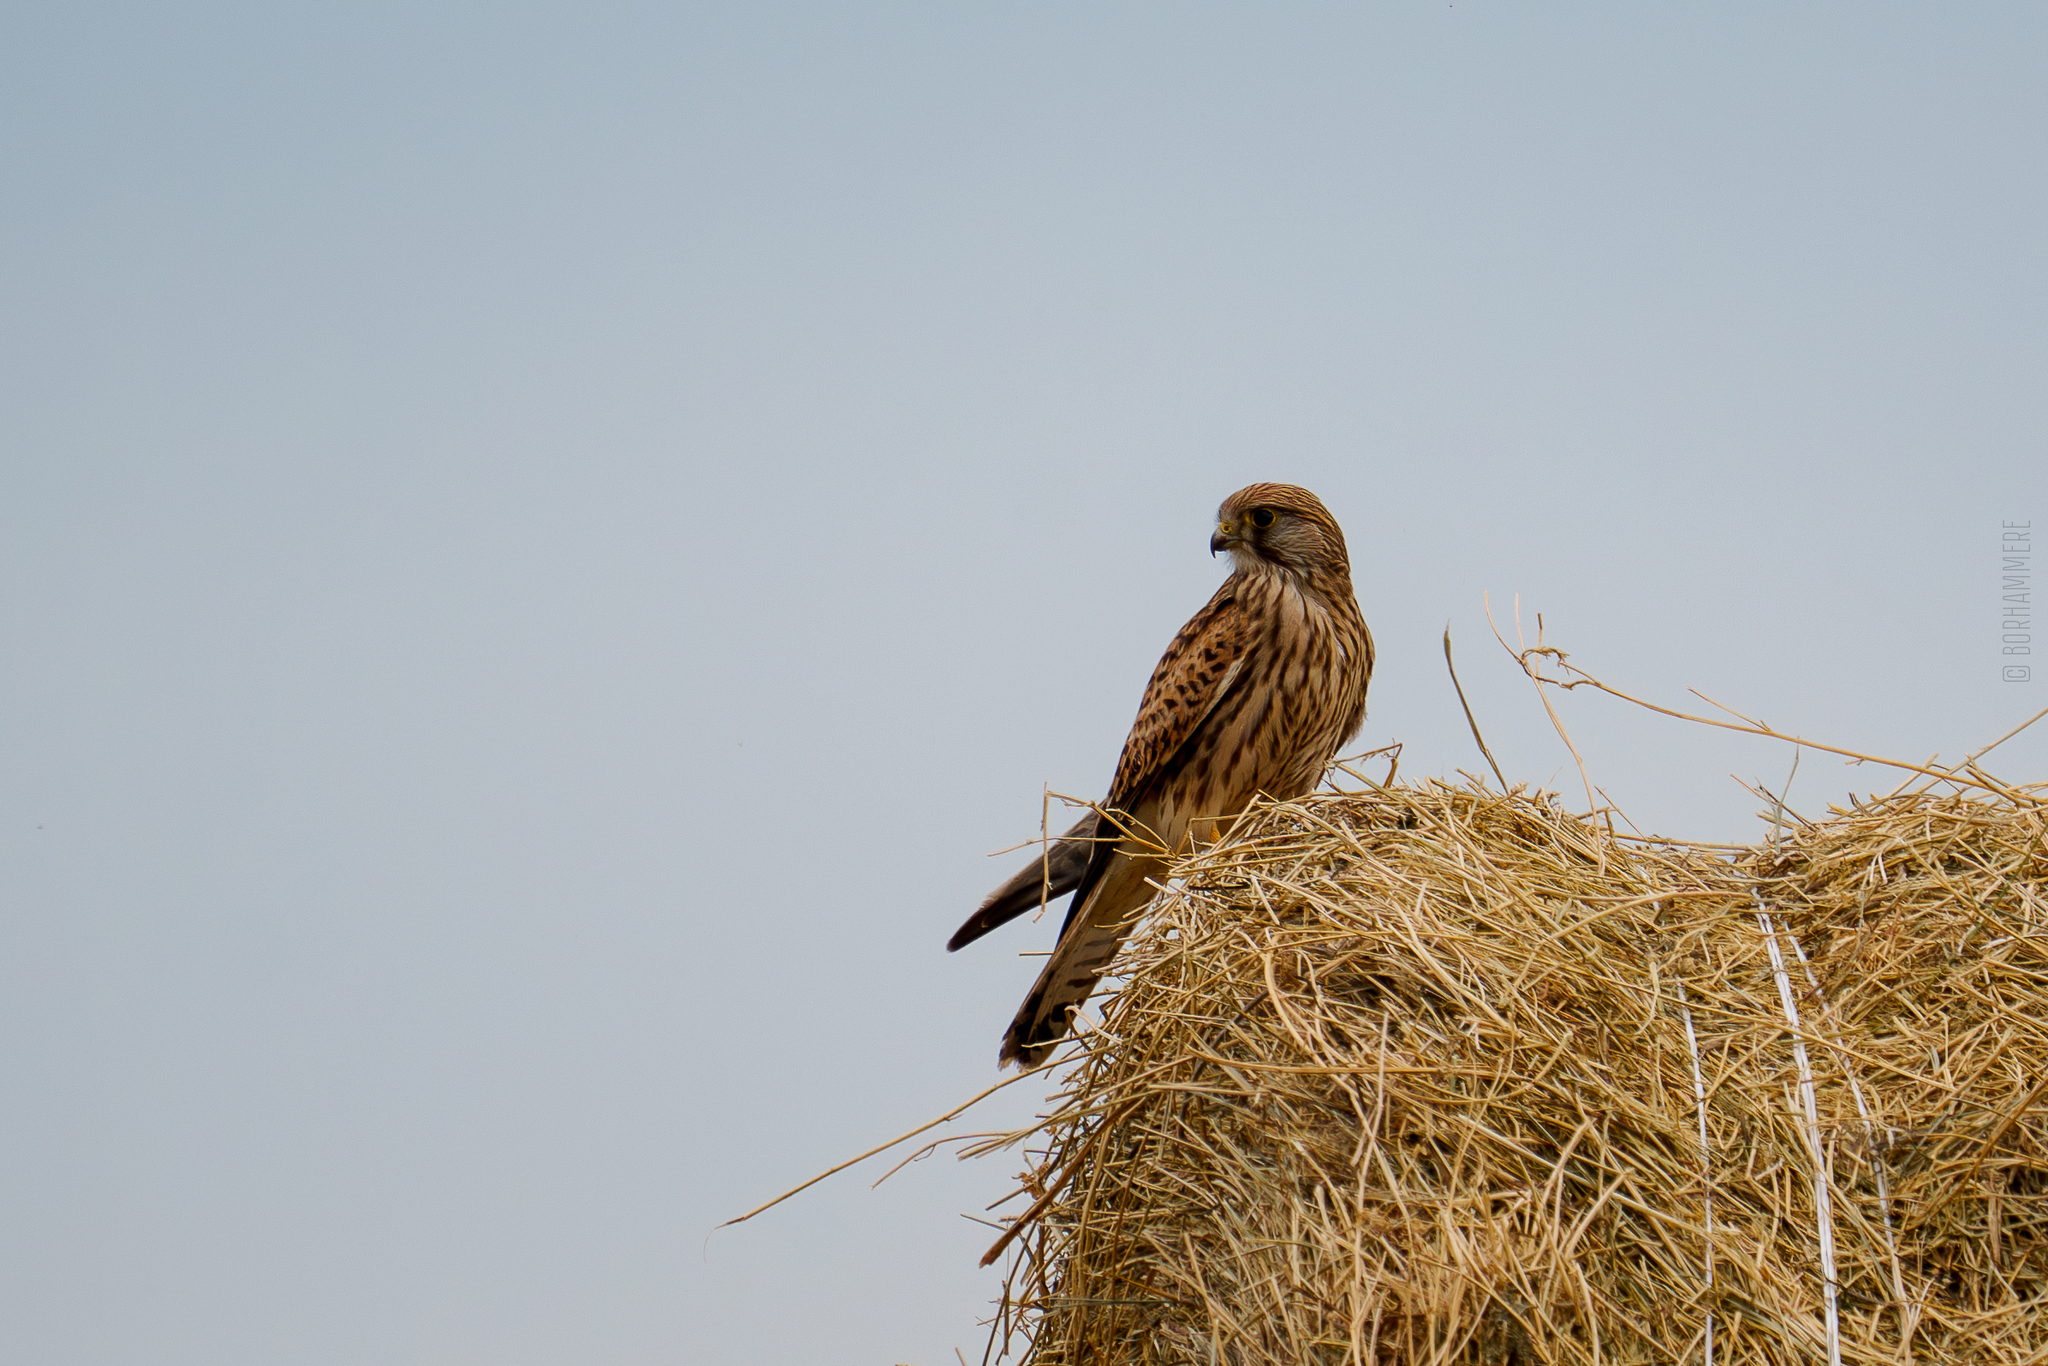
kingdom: Animalia
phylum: Chordata
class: Aves
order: Falconiformes
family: Falconidae
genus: Falco
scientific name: Falco tinnunculus
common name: Common kestrel
